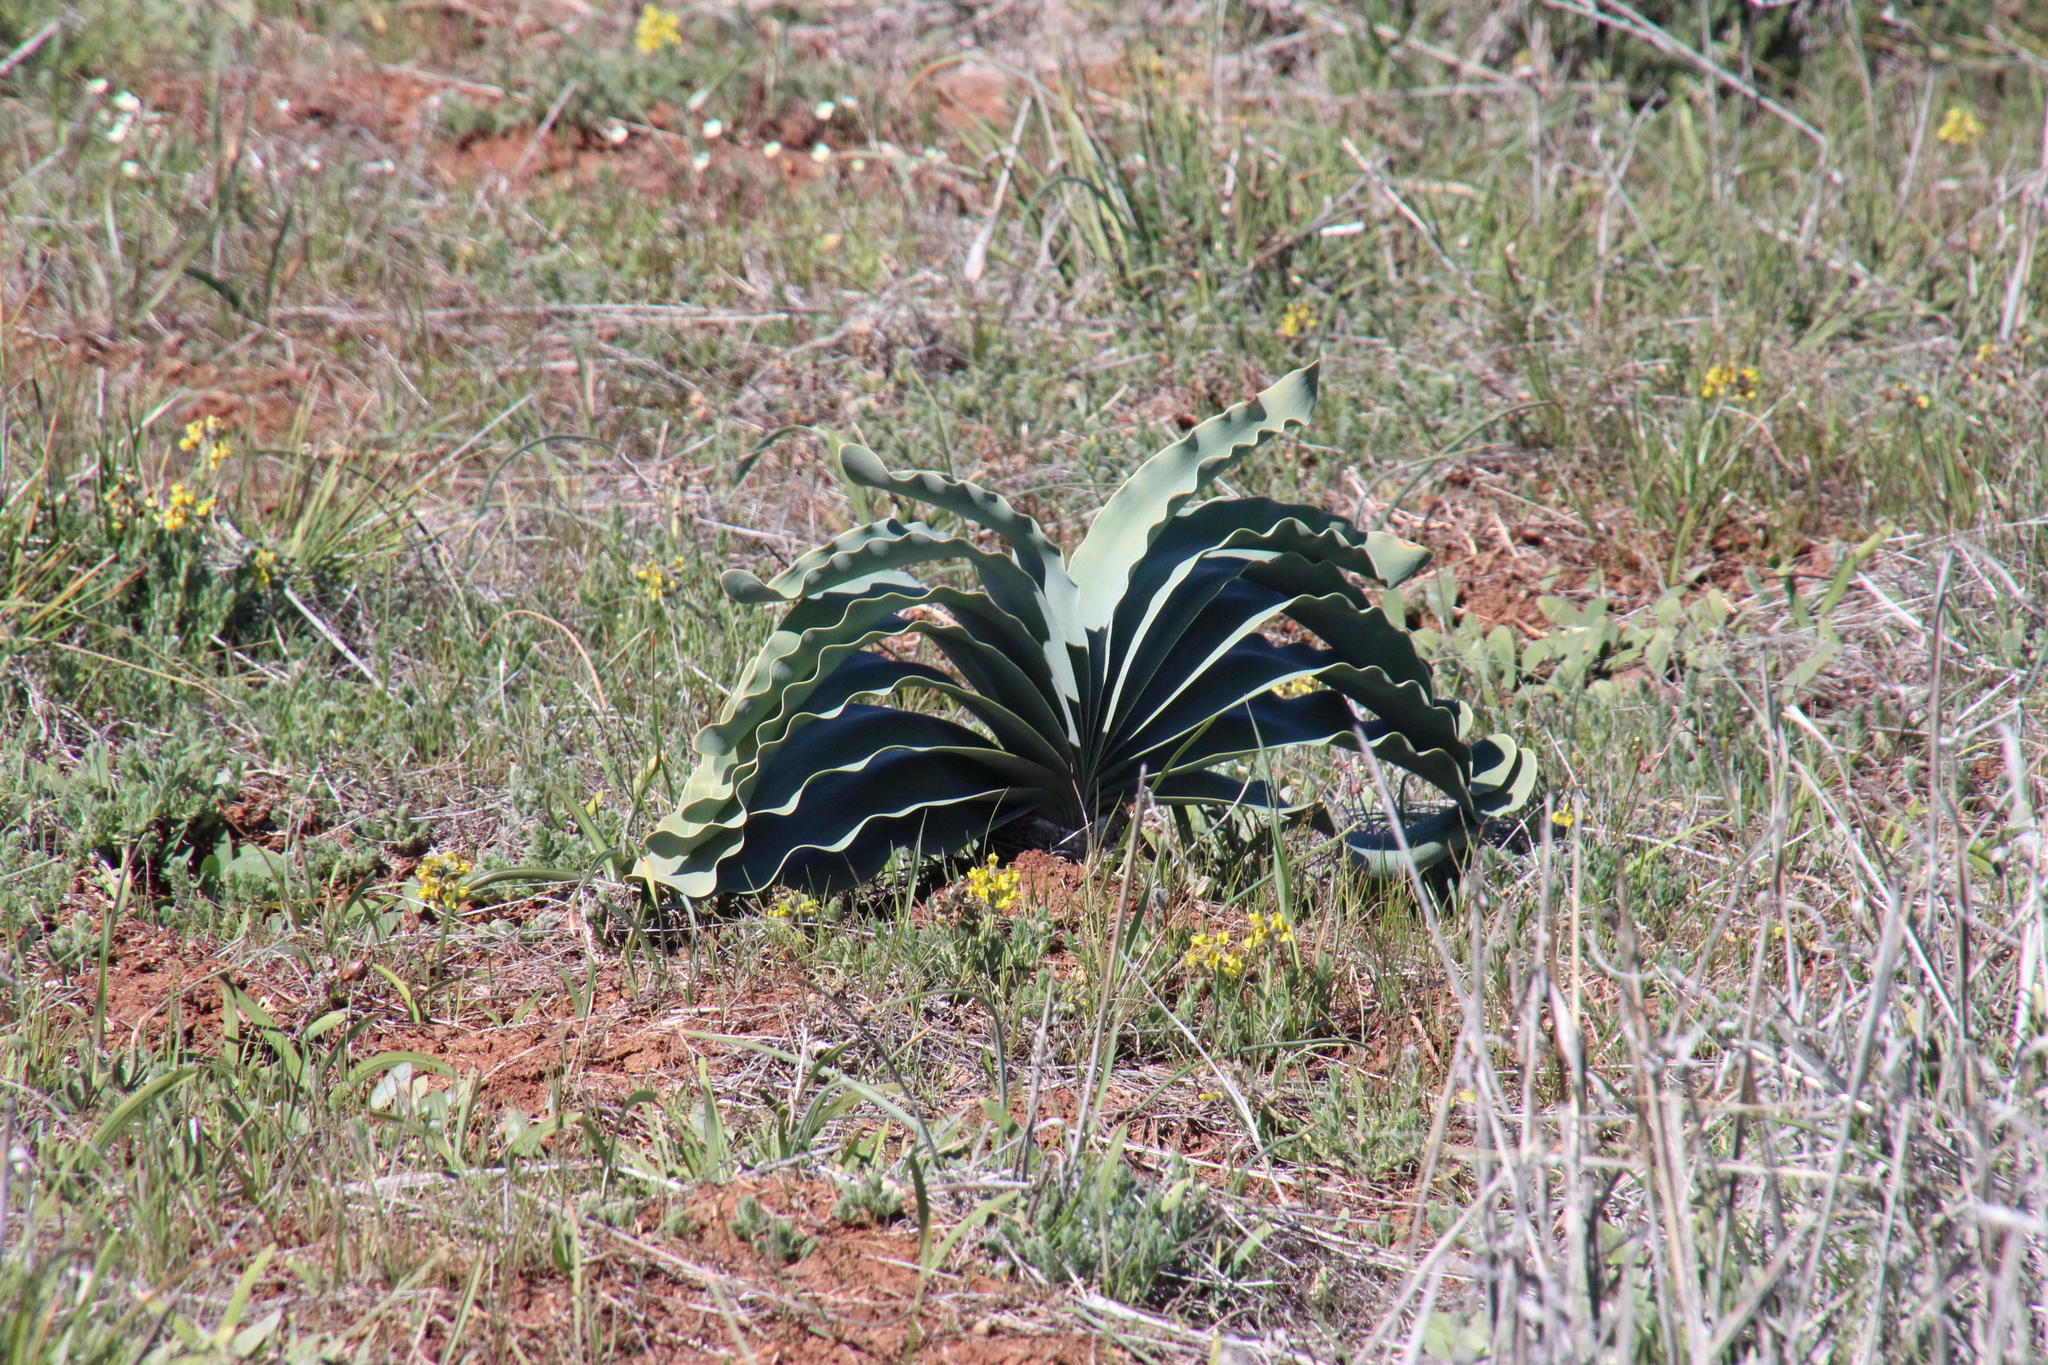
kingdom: Plantae
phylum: Tracheophyta
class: Liliopsida
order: Asparagales
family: Amaryllidaceae
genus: Boophone
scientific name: Boophone haemanthoides
